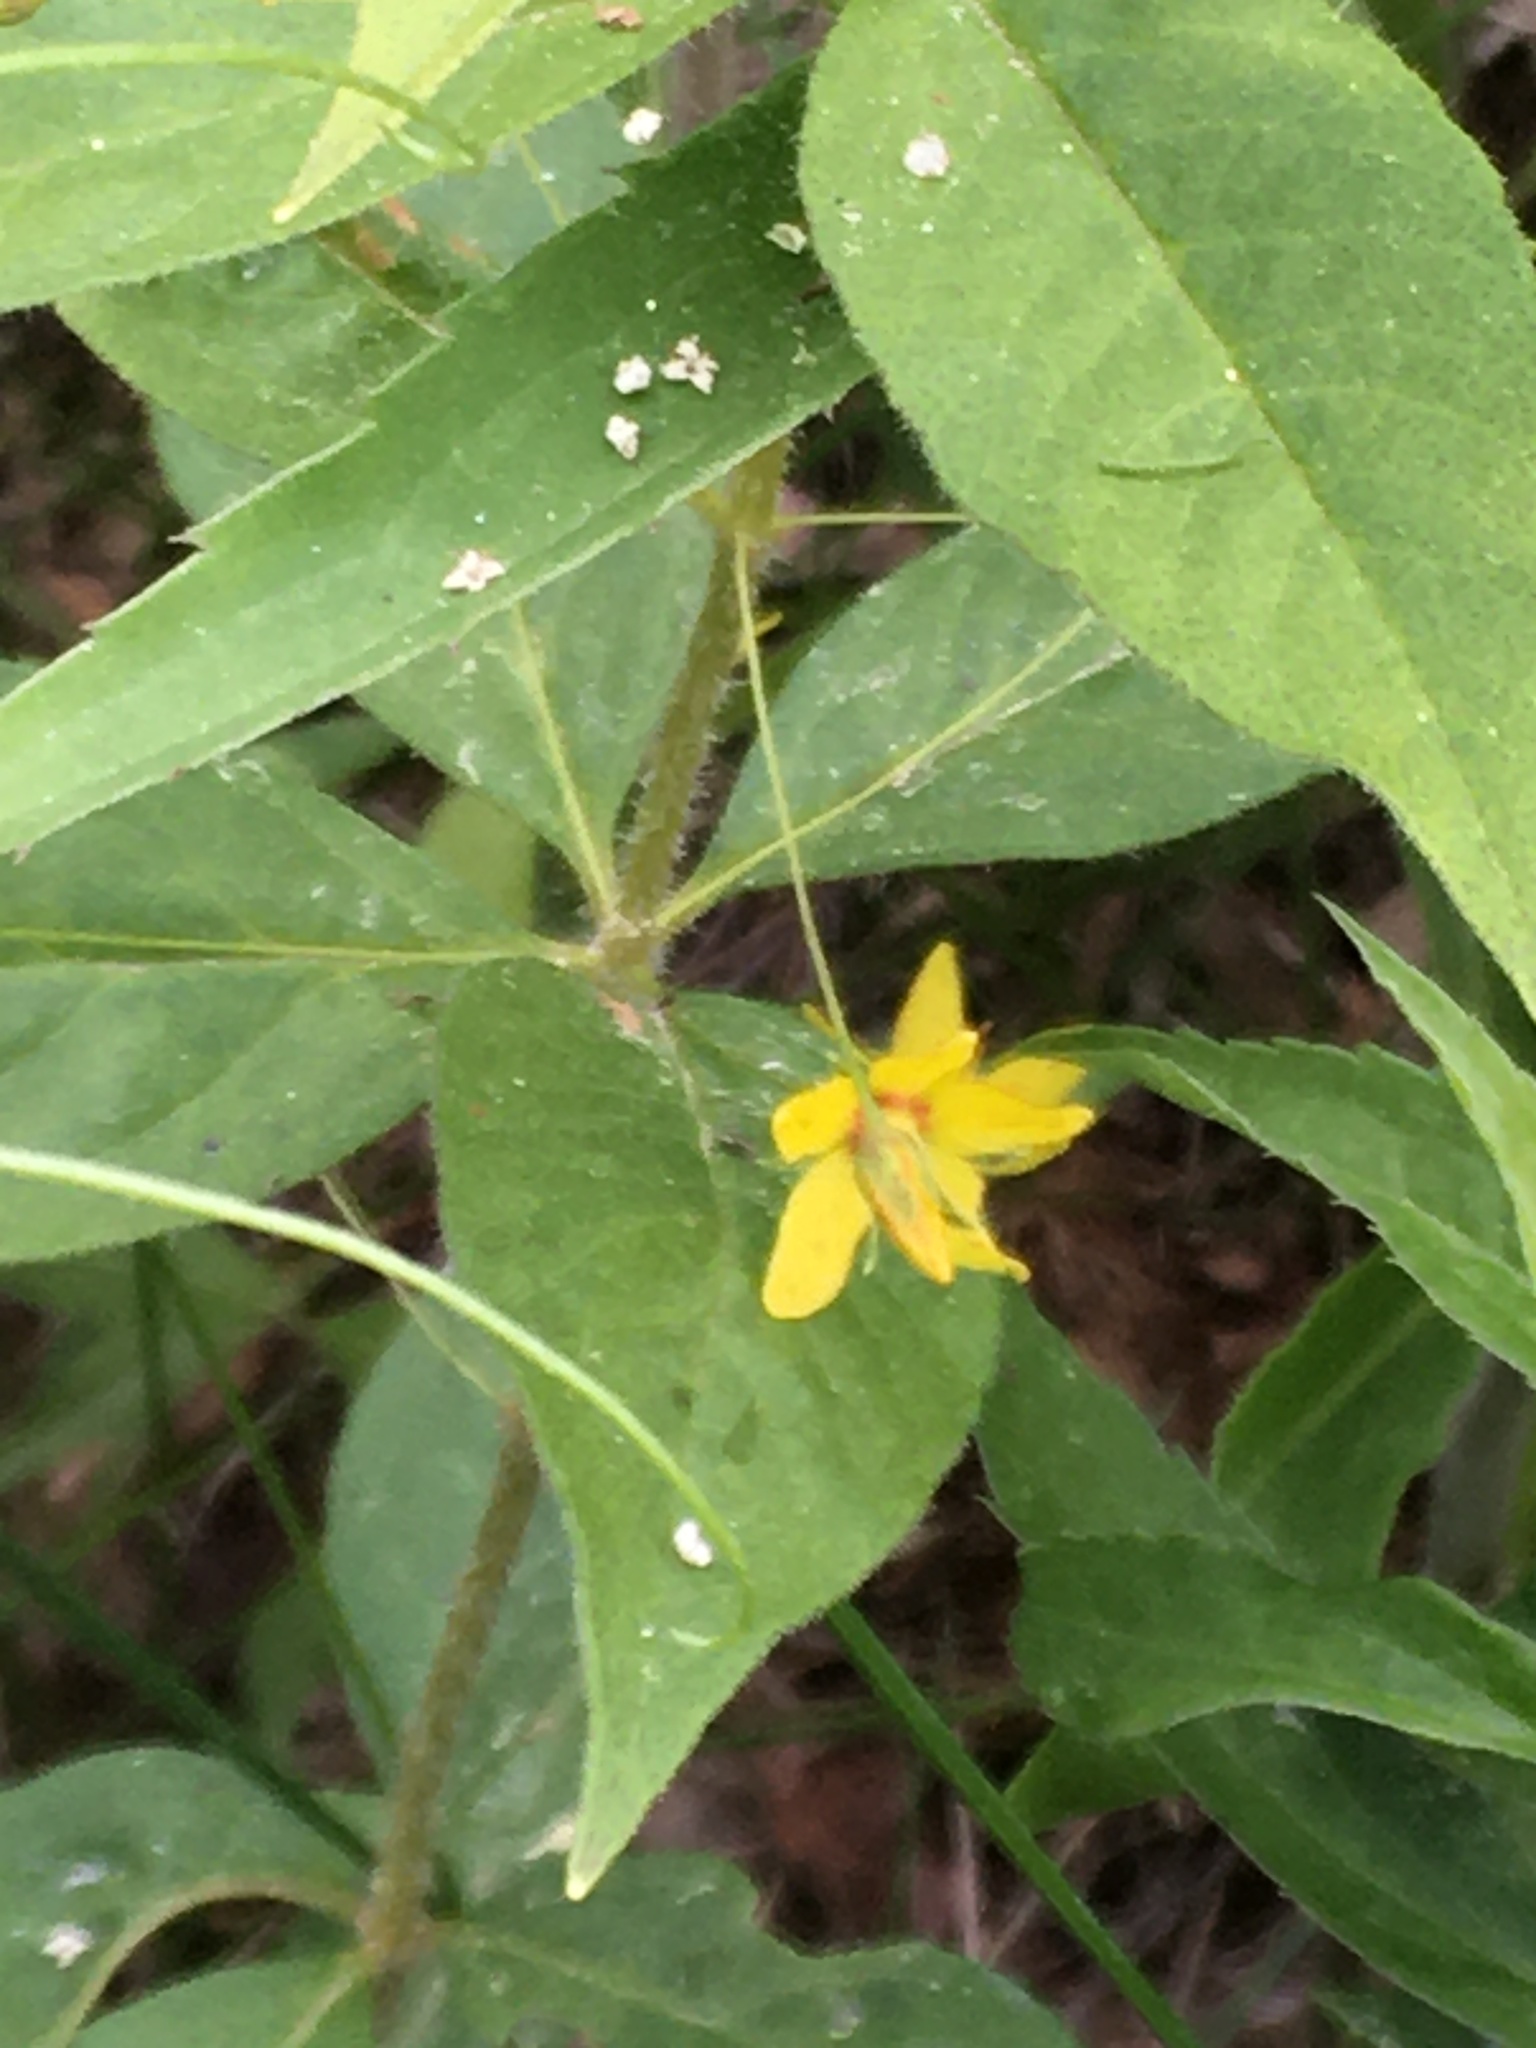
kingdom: Plantae
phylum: Tracheophyta
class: Magnoliopsida
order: Ericales
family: Primulaceae
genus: Lysimachia
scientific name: Lysimachia quadrifolia
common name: Whorled loosestrife
